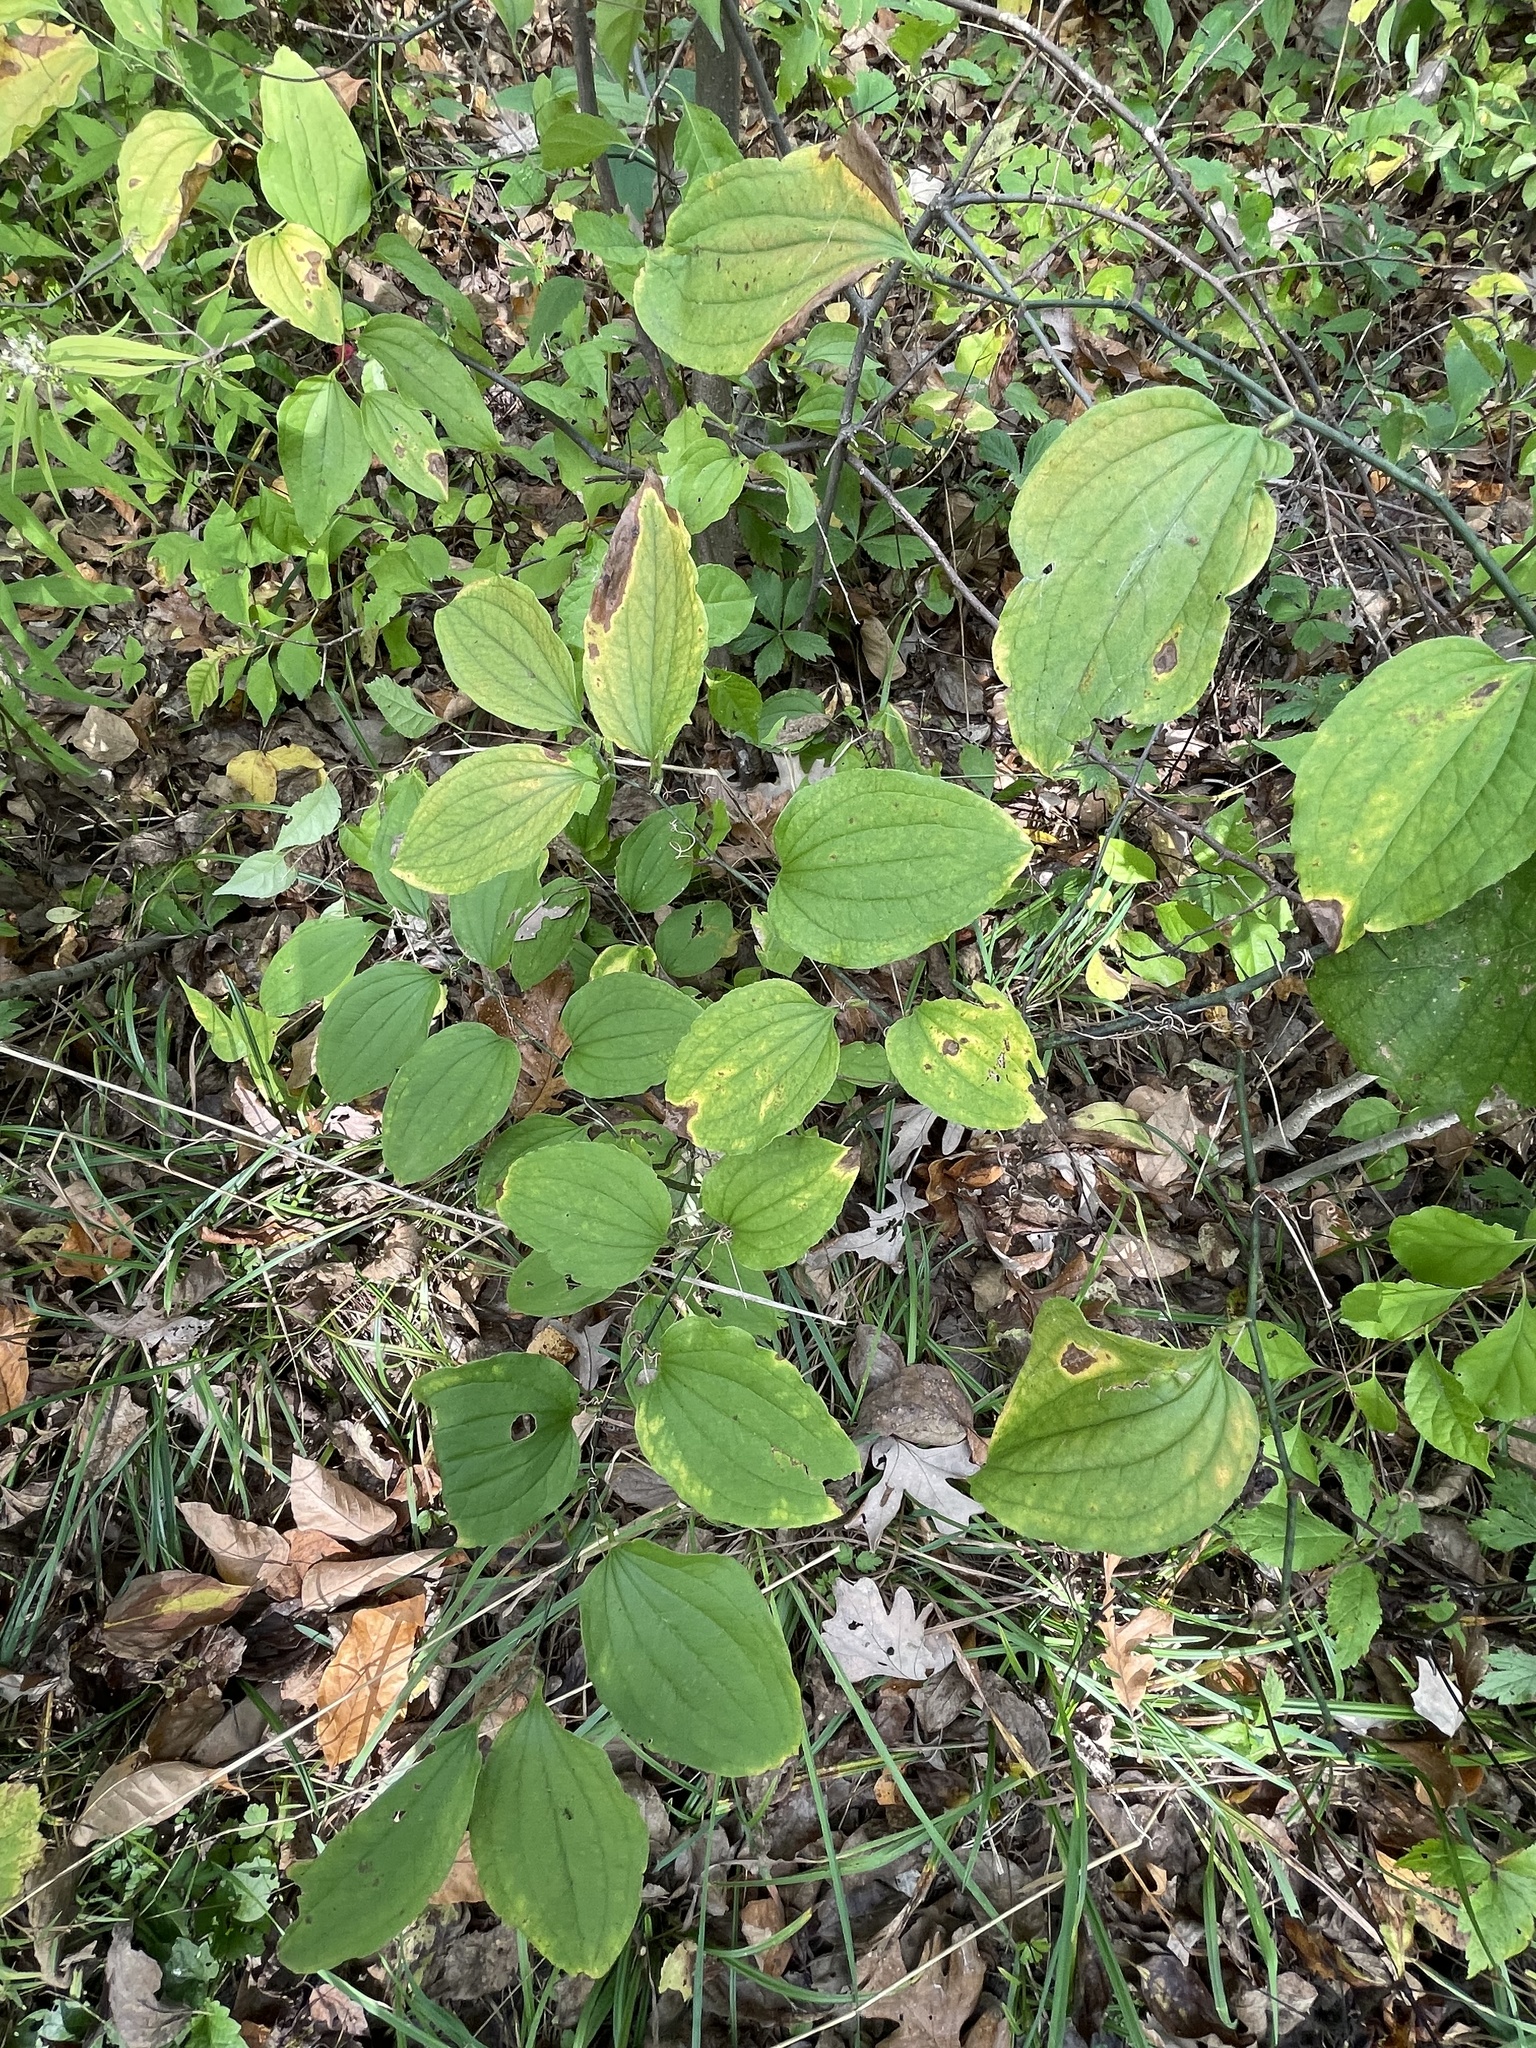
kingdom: Plantae
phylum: Tracheophyta
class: Liliopsida
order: Liliales
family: Smilacaceae
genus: Smilax
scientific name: Smilax tamnoides
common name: Hellfetter
